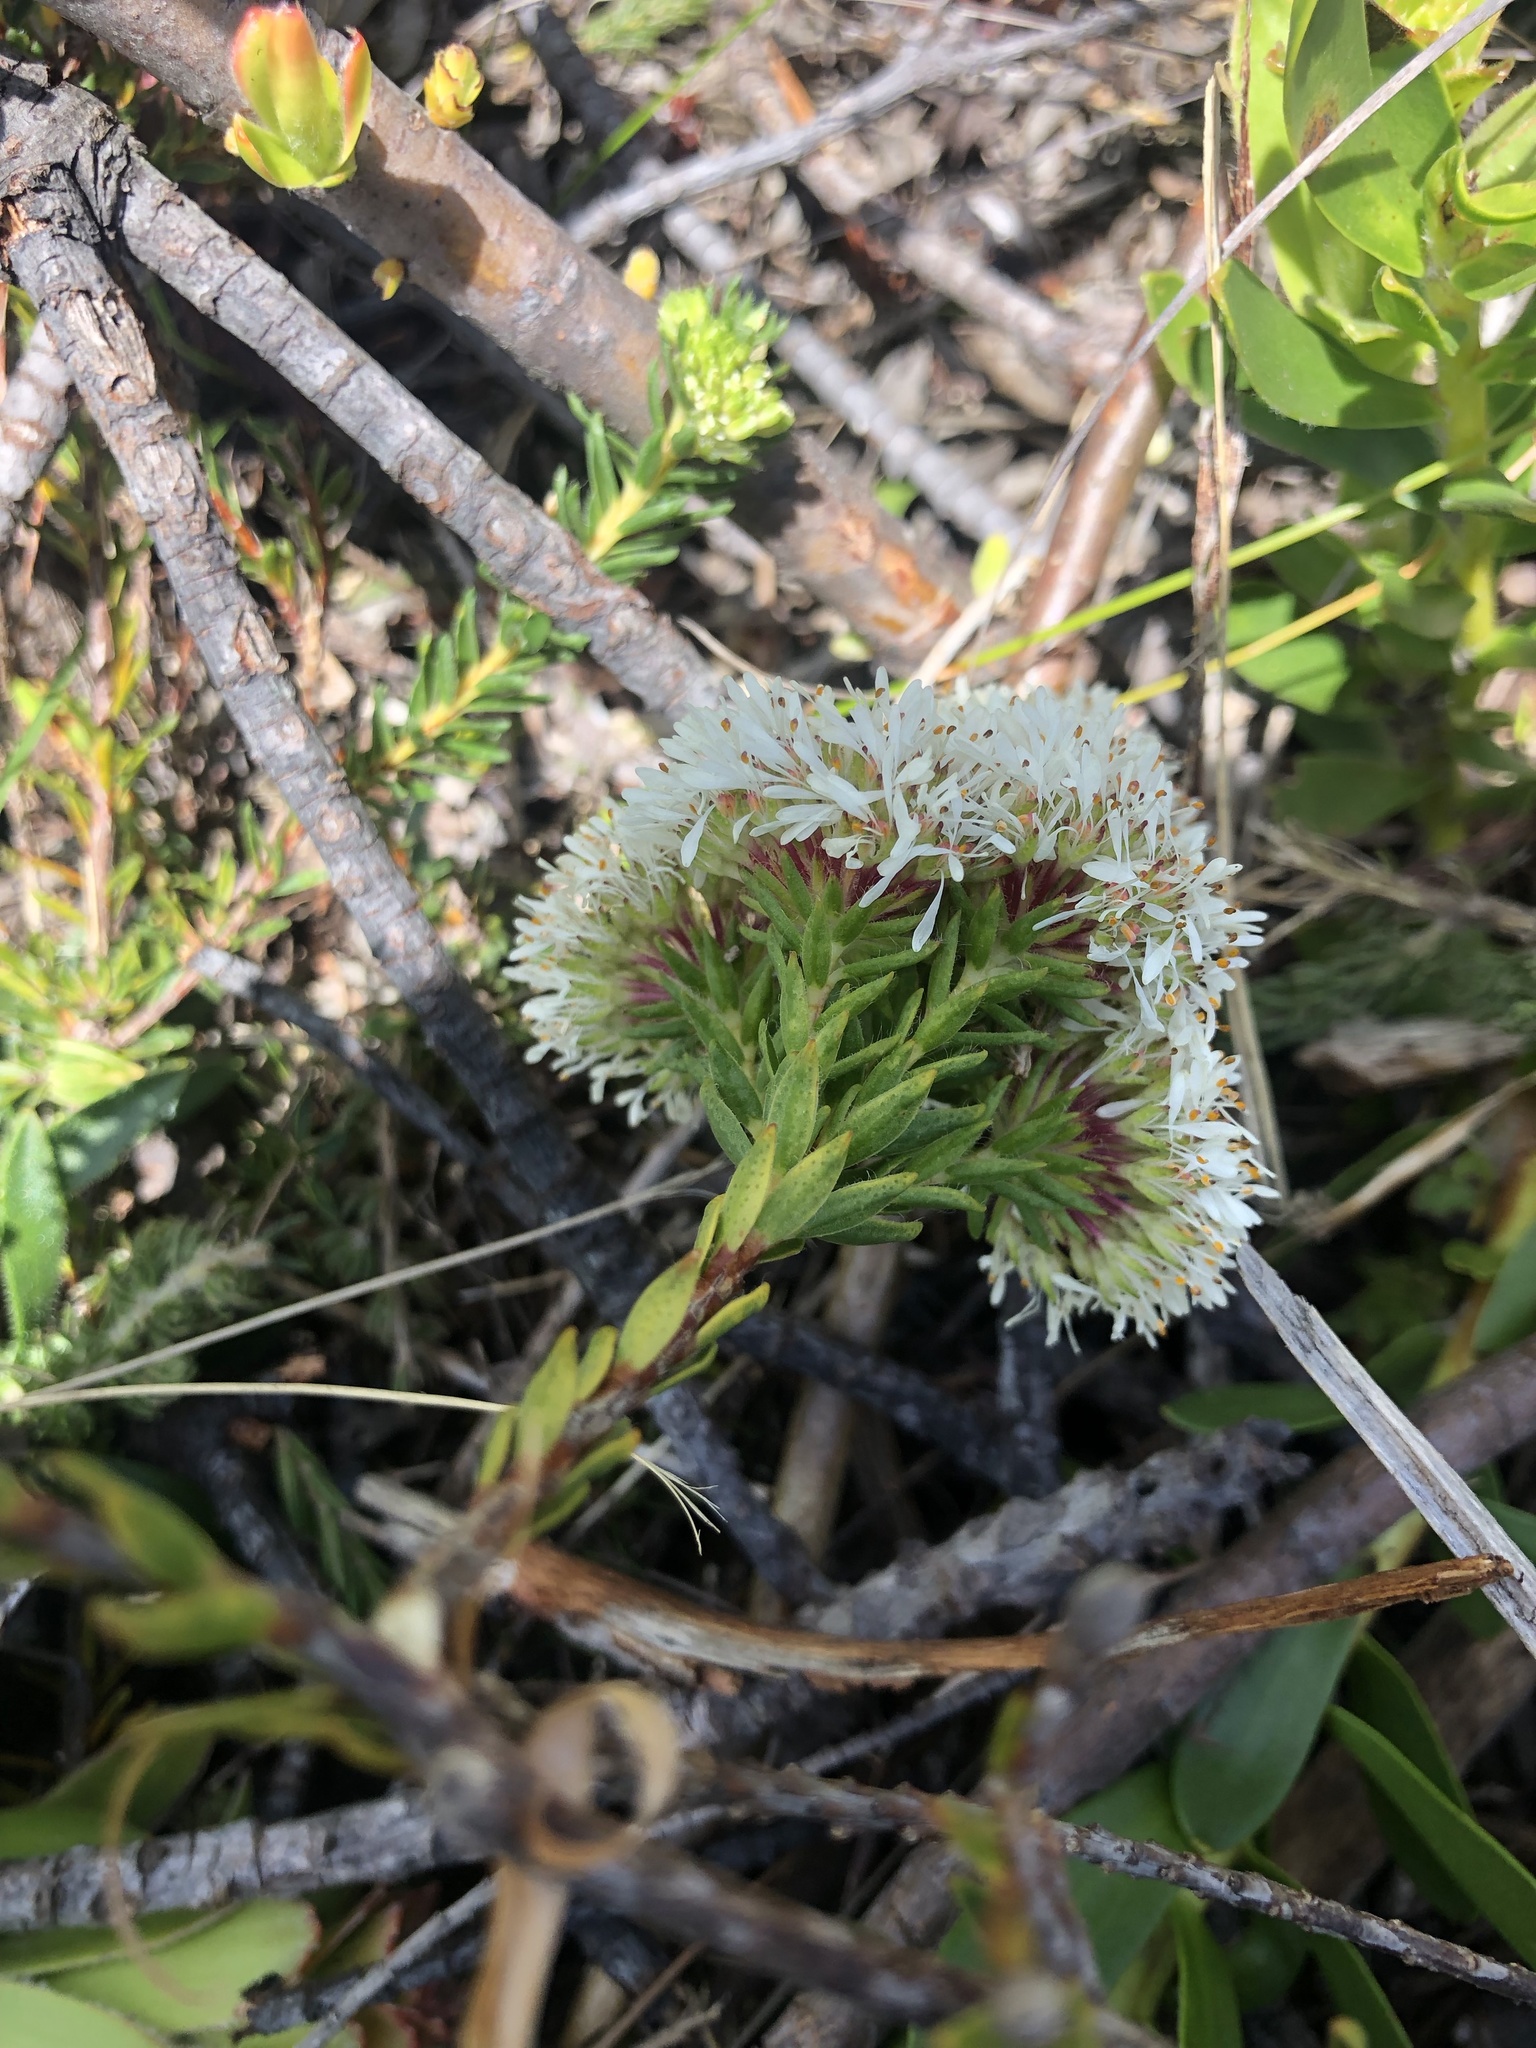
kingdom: Plantae
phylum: Tracheophyta
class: Magnoliopsida
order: Sapindales
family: Rutaceae
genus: Agathosma
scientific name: Agathosma bifida
